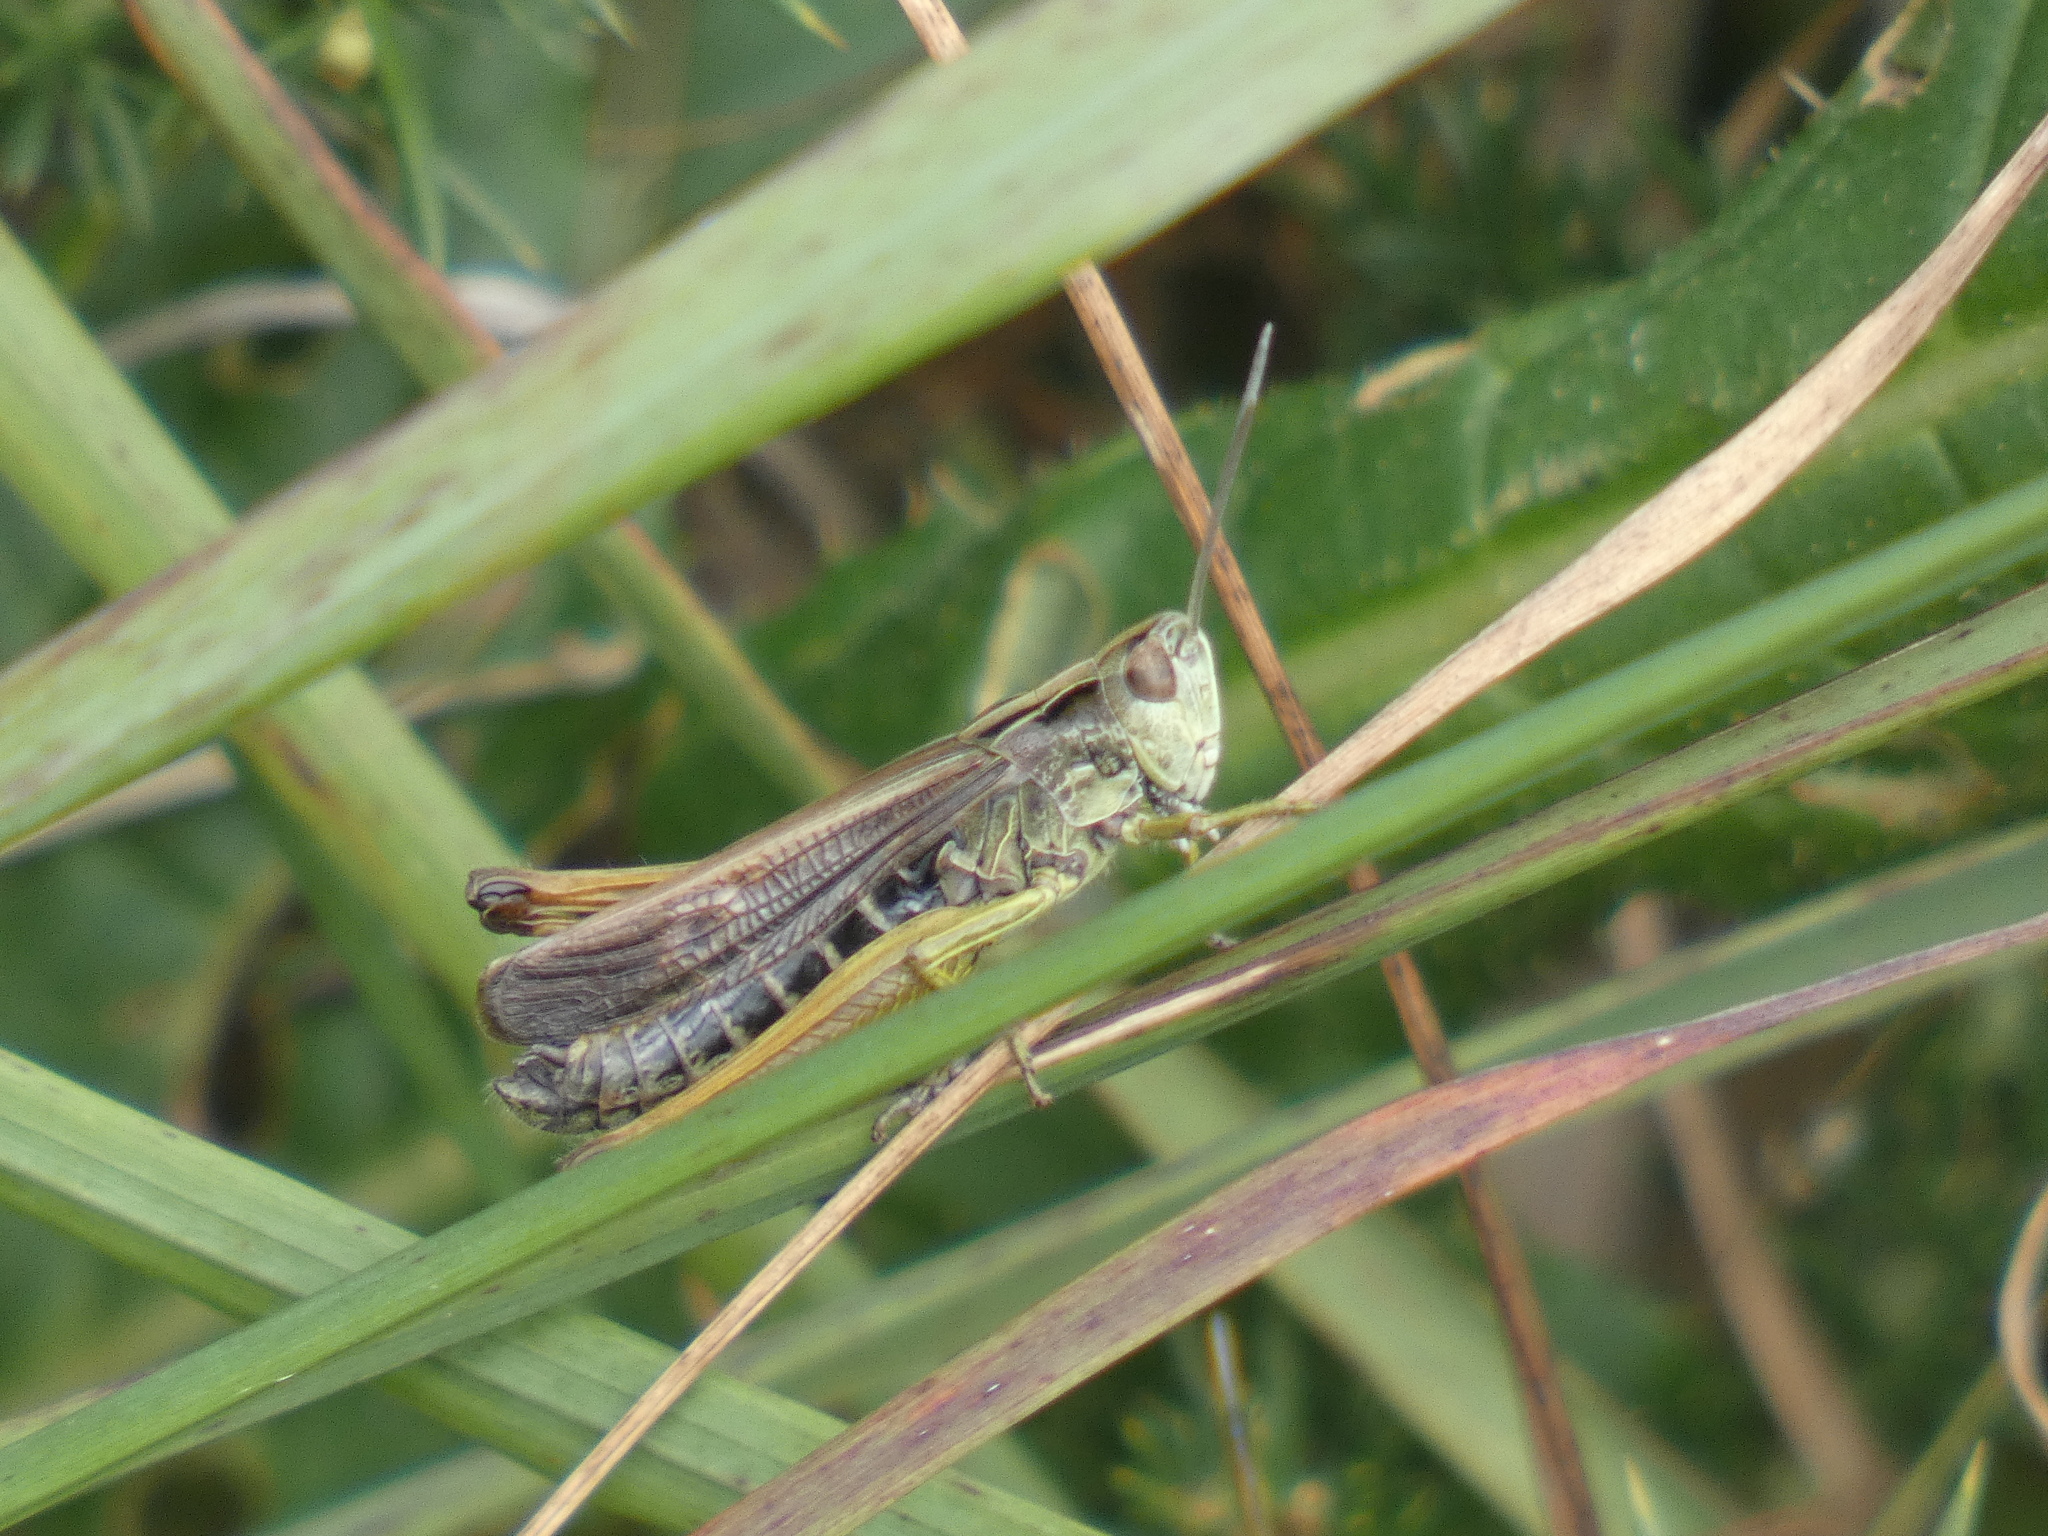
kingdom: Animalia
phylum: Arthropoda
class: Insecta
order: Orthoptera
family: Acrididae
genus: Omocestus
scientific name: Omocestus viridulus
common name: Common green grasshopper
